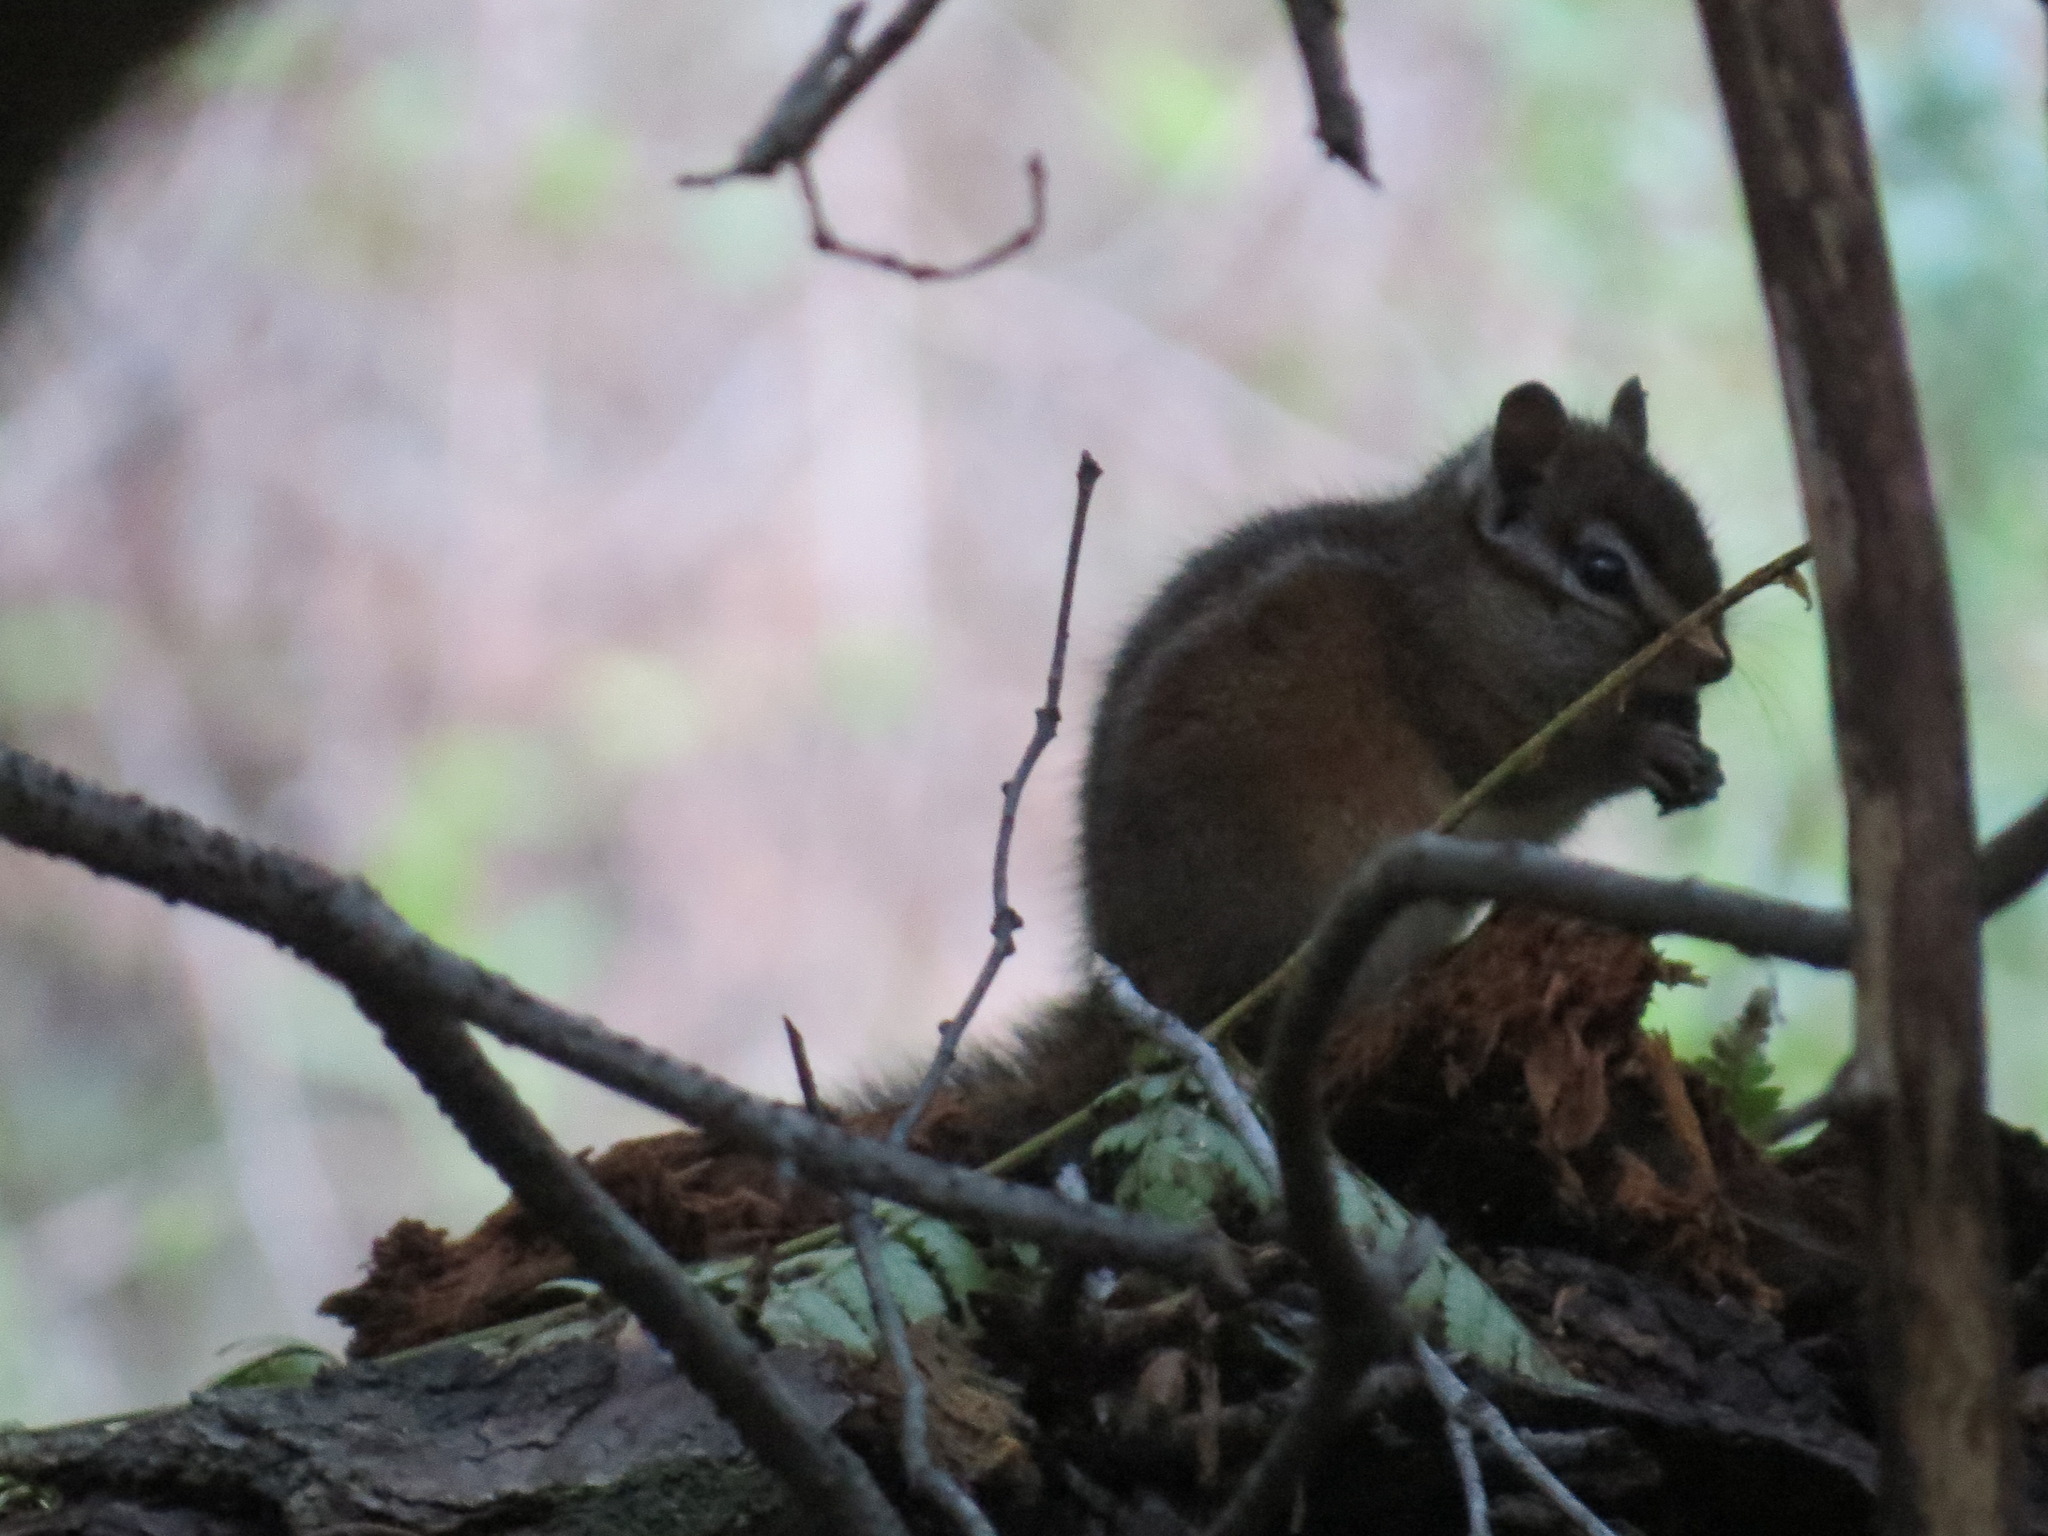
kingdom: Animalia
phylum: Chordata
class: Mammalia
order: Rodentia
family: Sciuridae
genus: Tamias
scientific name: Tamias merriami
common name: Merriam's chipmunk
